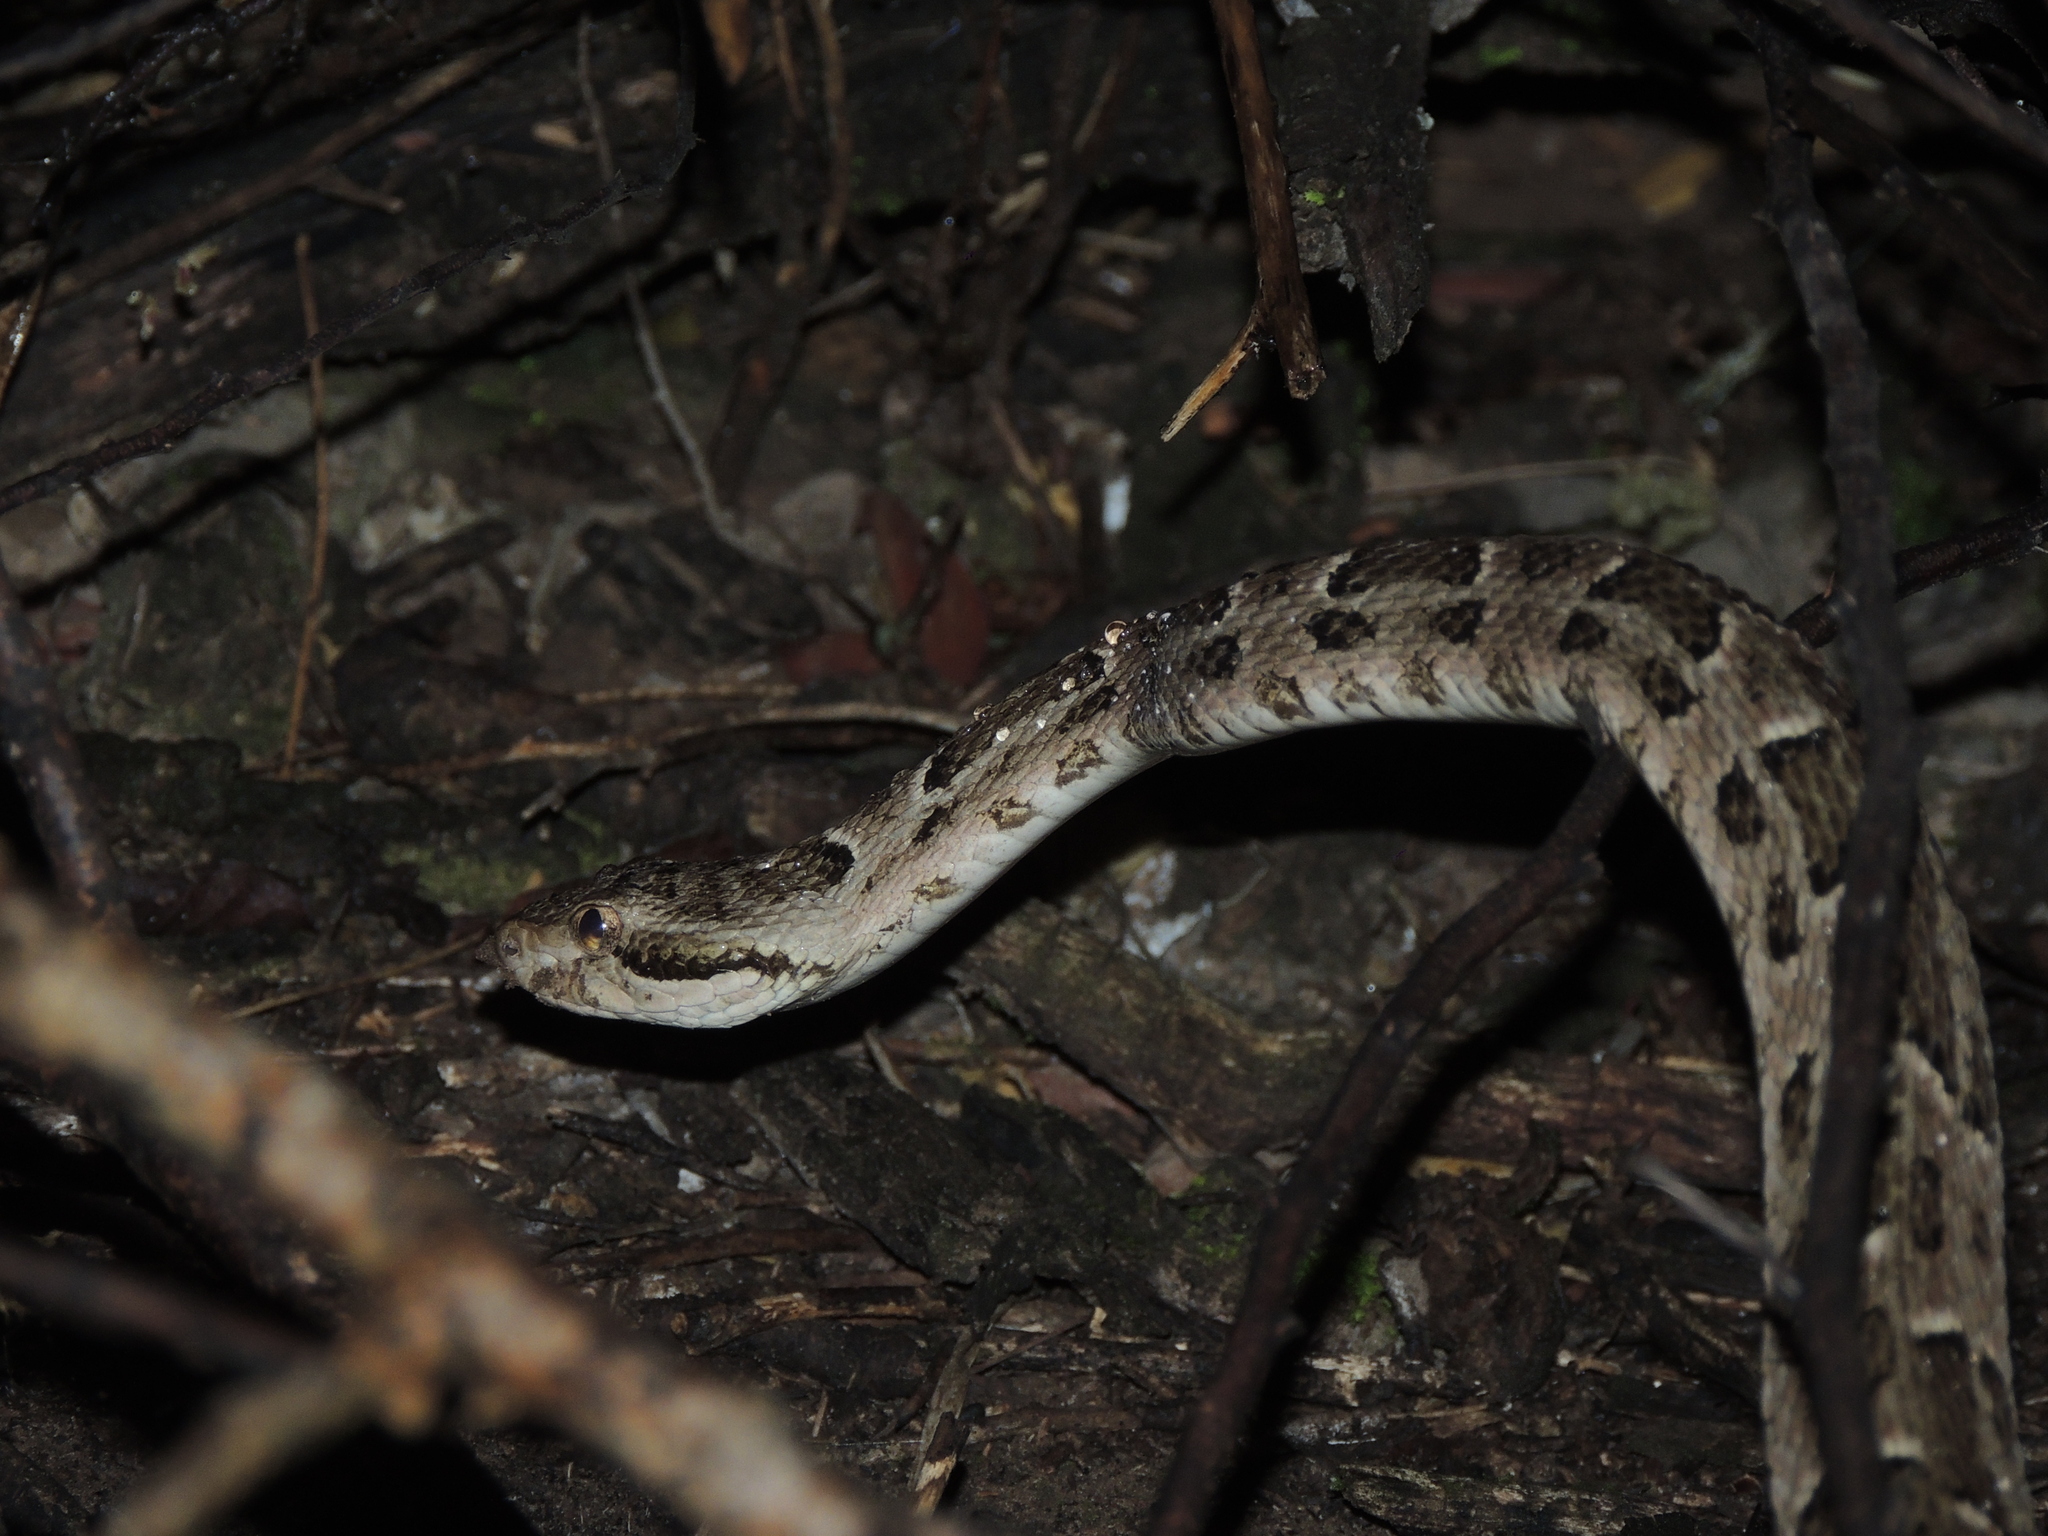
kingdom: Animalia
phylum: Chordata
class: Squamata
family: Viperidae
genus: Bothrops
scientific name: Bothrops diporus
